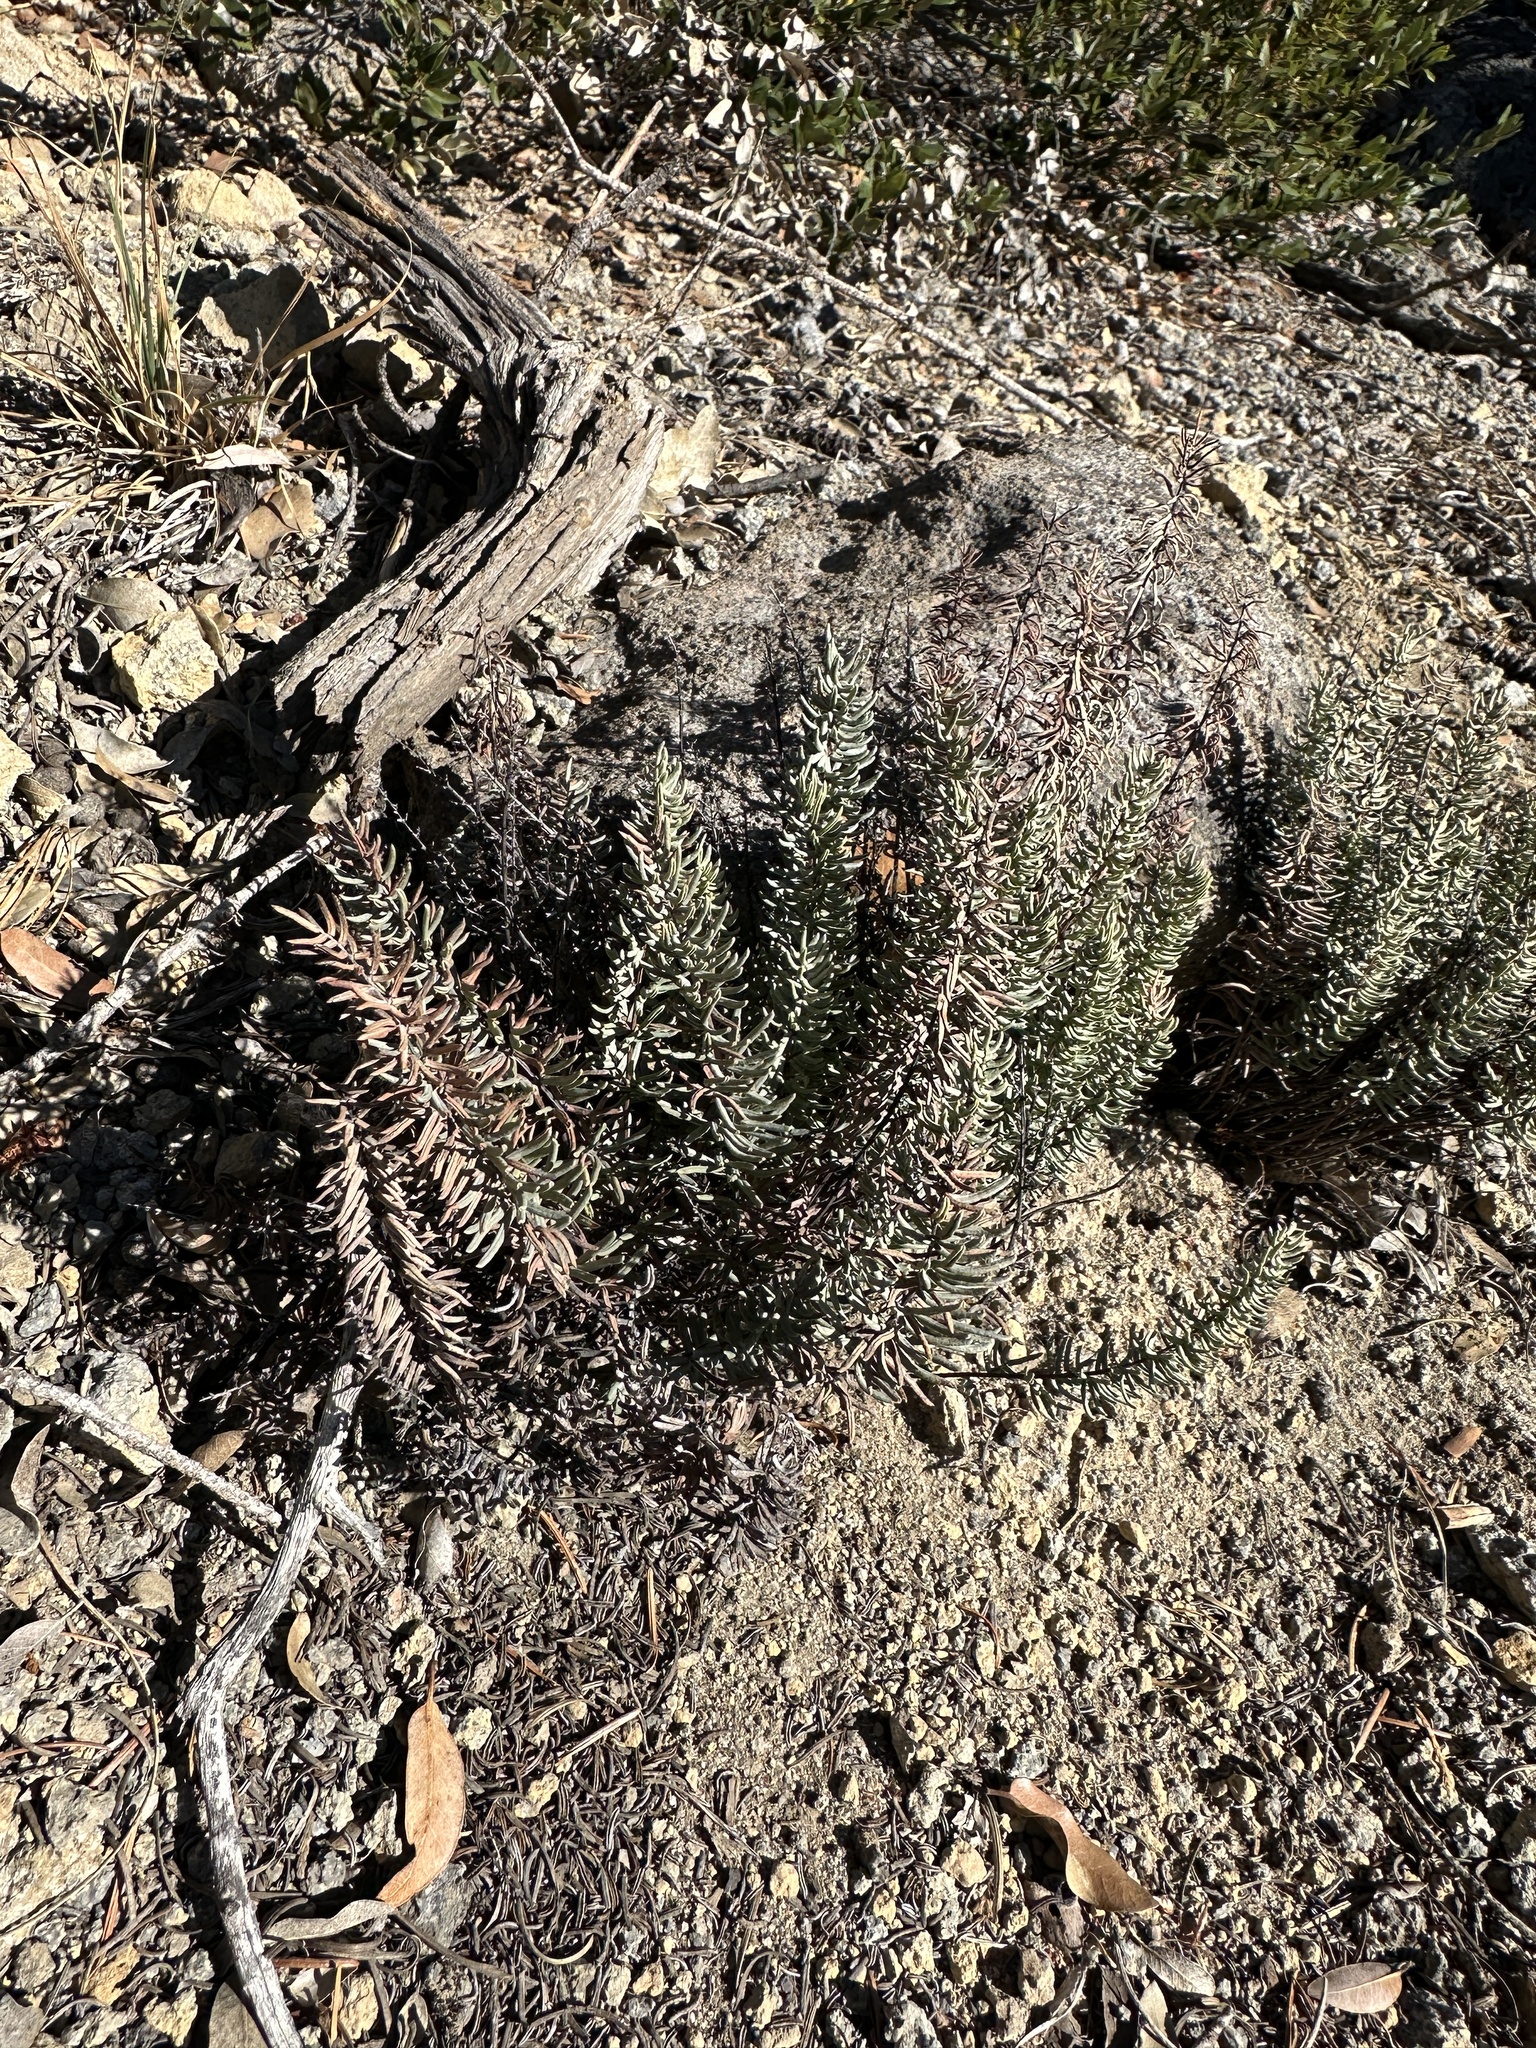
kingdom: Plantae
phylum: Tracheophyta
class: Polypodiopsida
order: Polypodiales
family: Pteridaceae
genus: Pellaea
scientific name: Pellaea brachyptera
